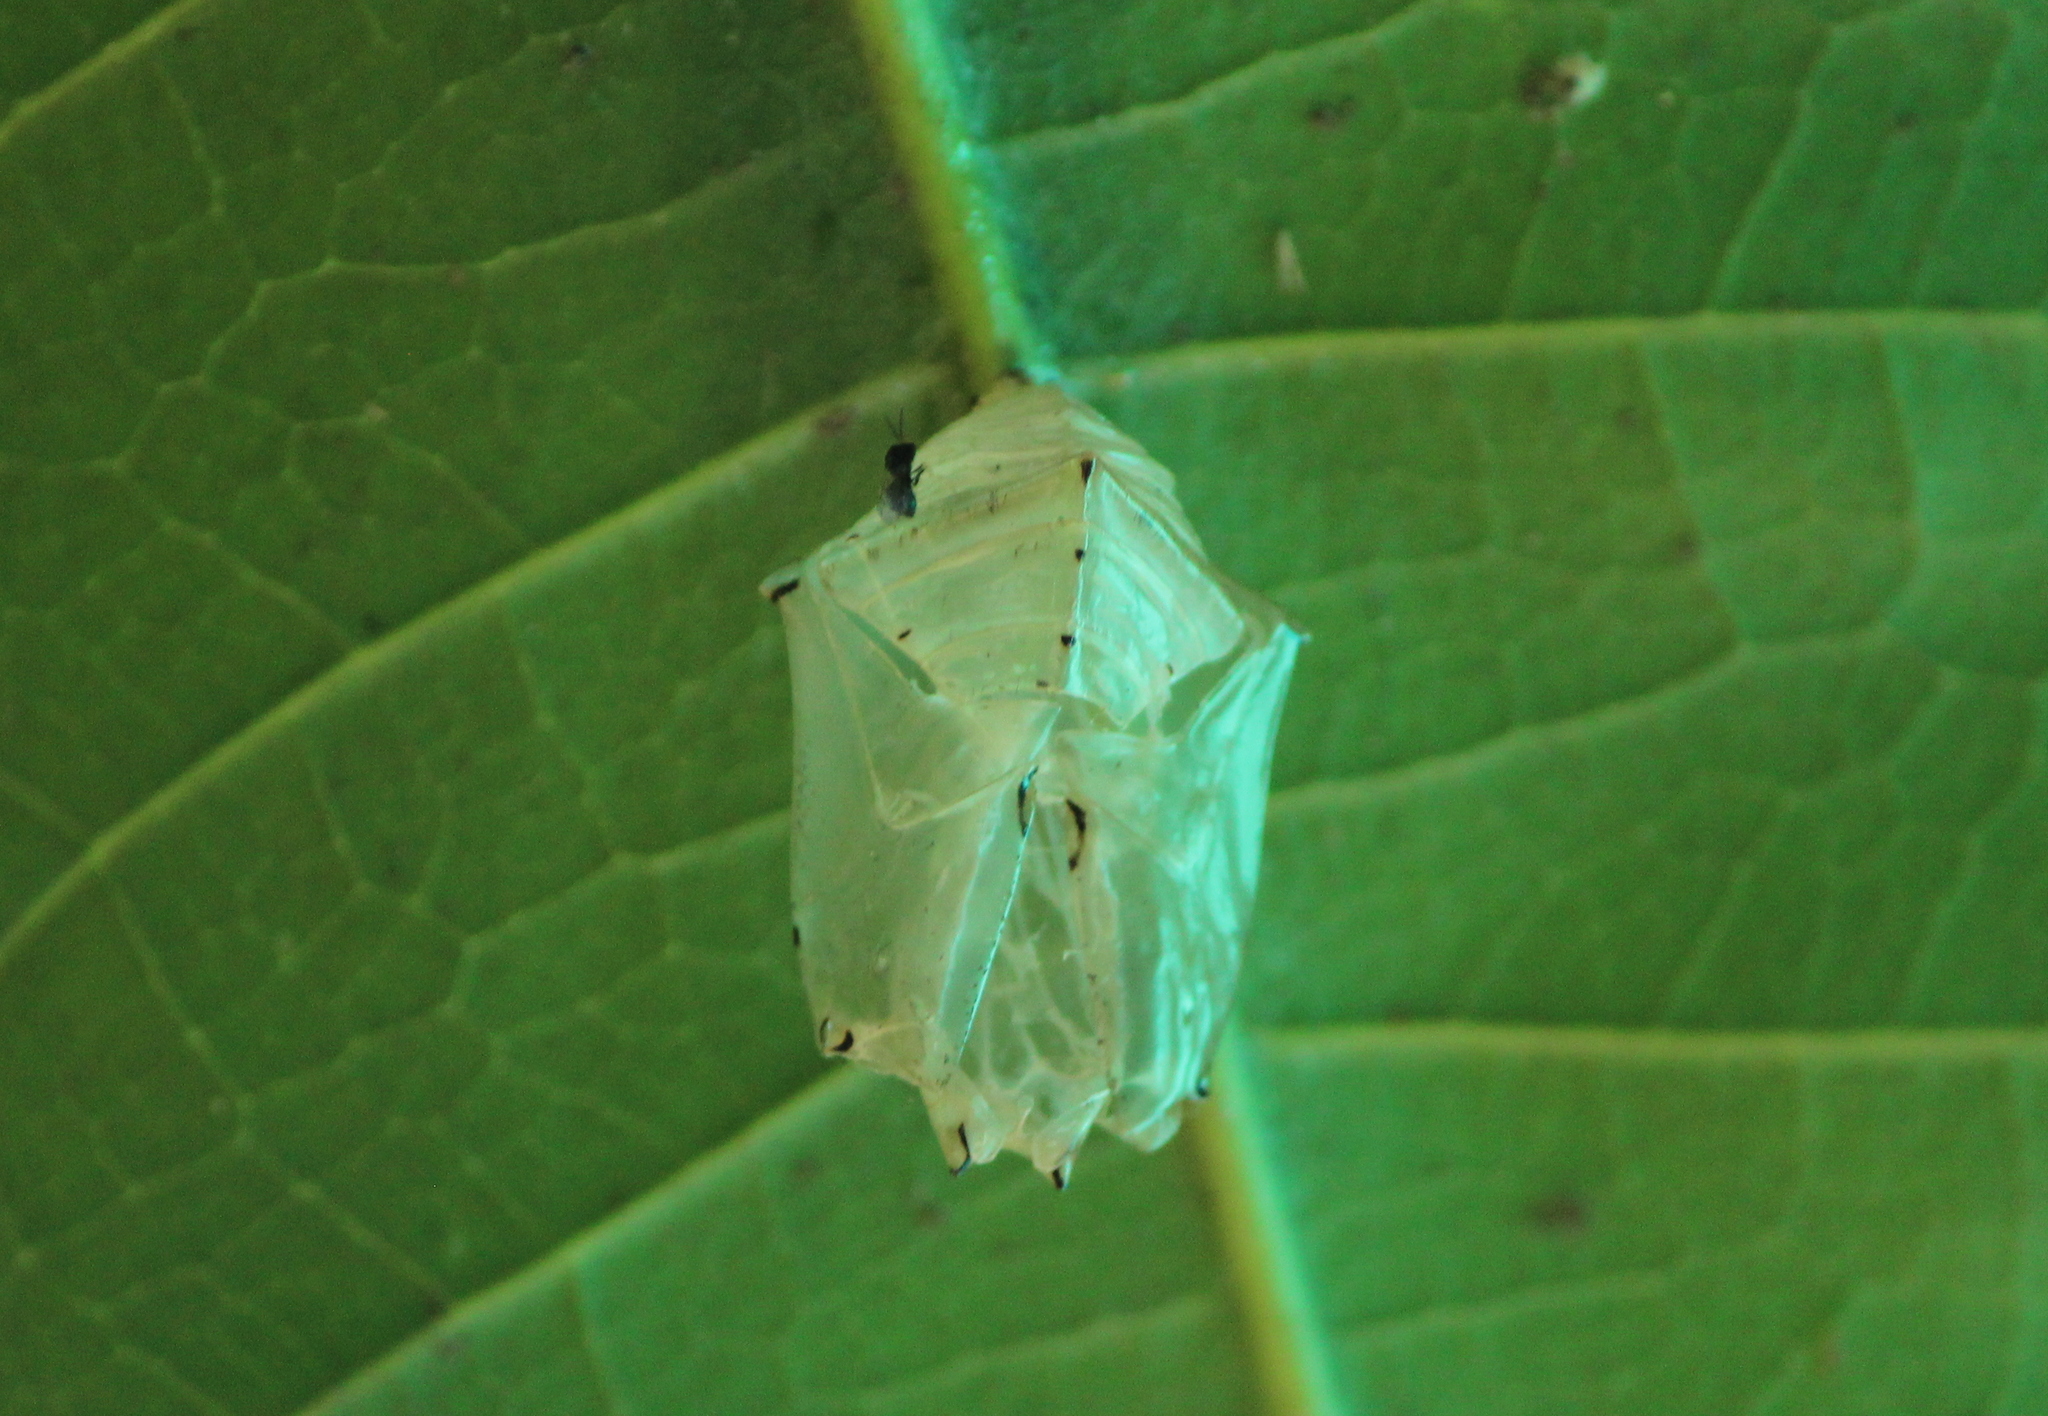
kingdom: Animalia
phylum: Arthropoda
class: Insecta
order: Lepidoptera
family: Nymphalidae
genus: Euthalia
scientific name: Euthalia aconthea
